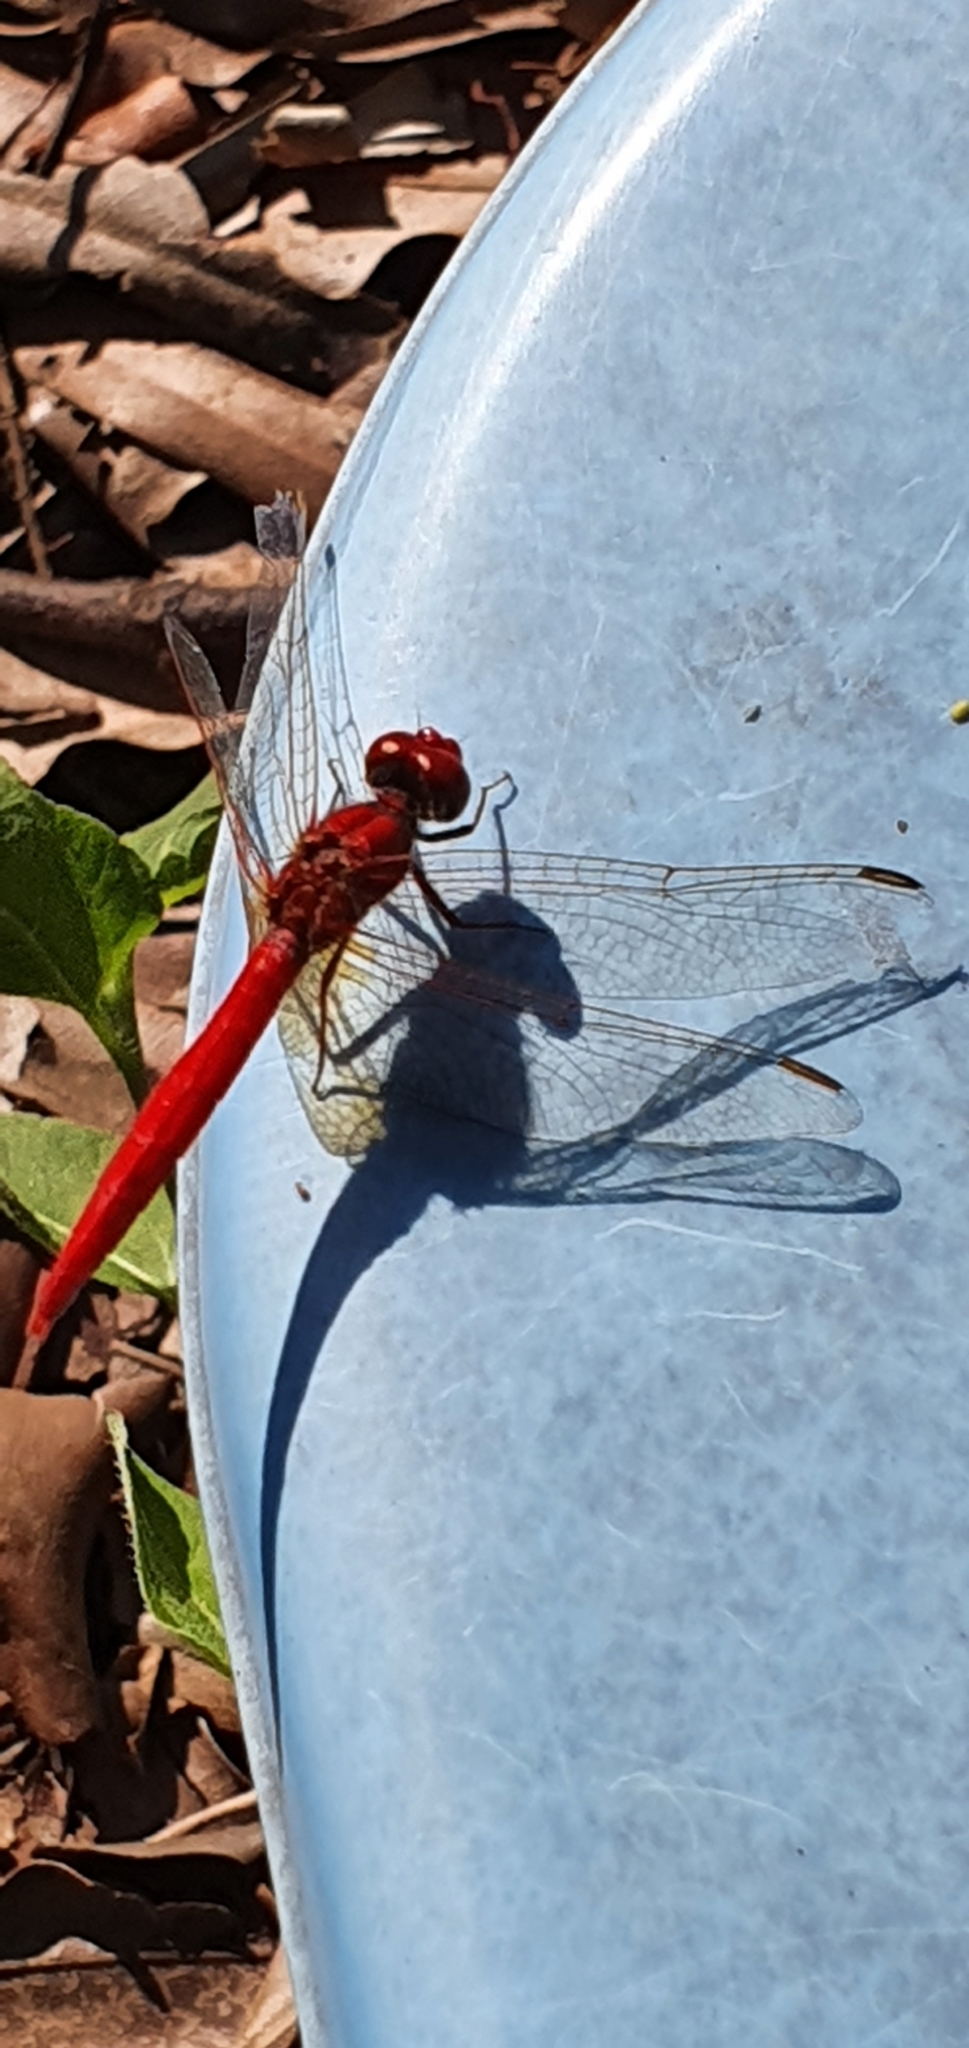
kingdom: Animalia
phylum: Arthropoda
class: Insecta
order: Odonata
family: Libellulidae
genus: Diplacodes
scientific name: Diplacodes haematodes
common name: Scarlet percher
